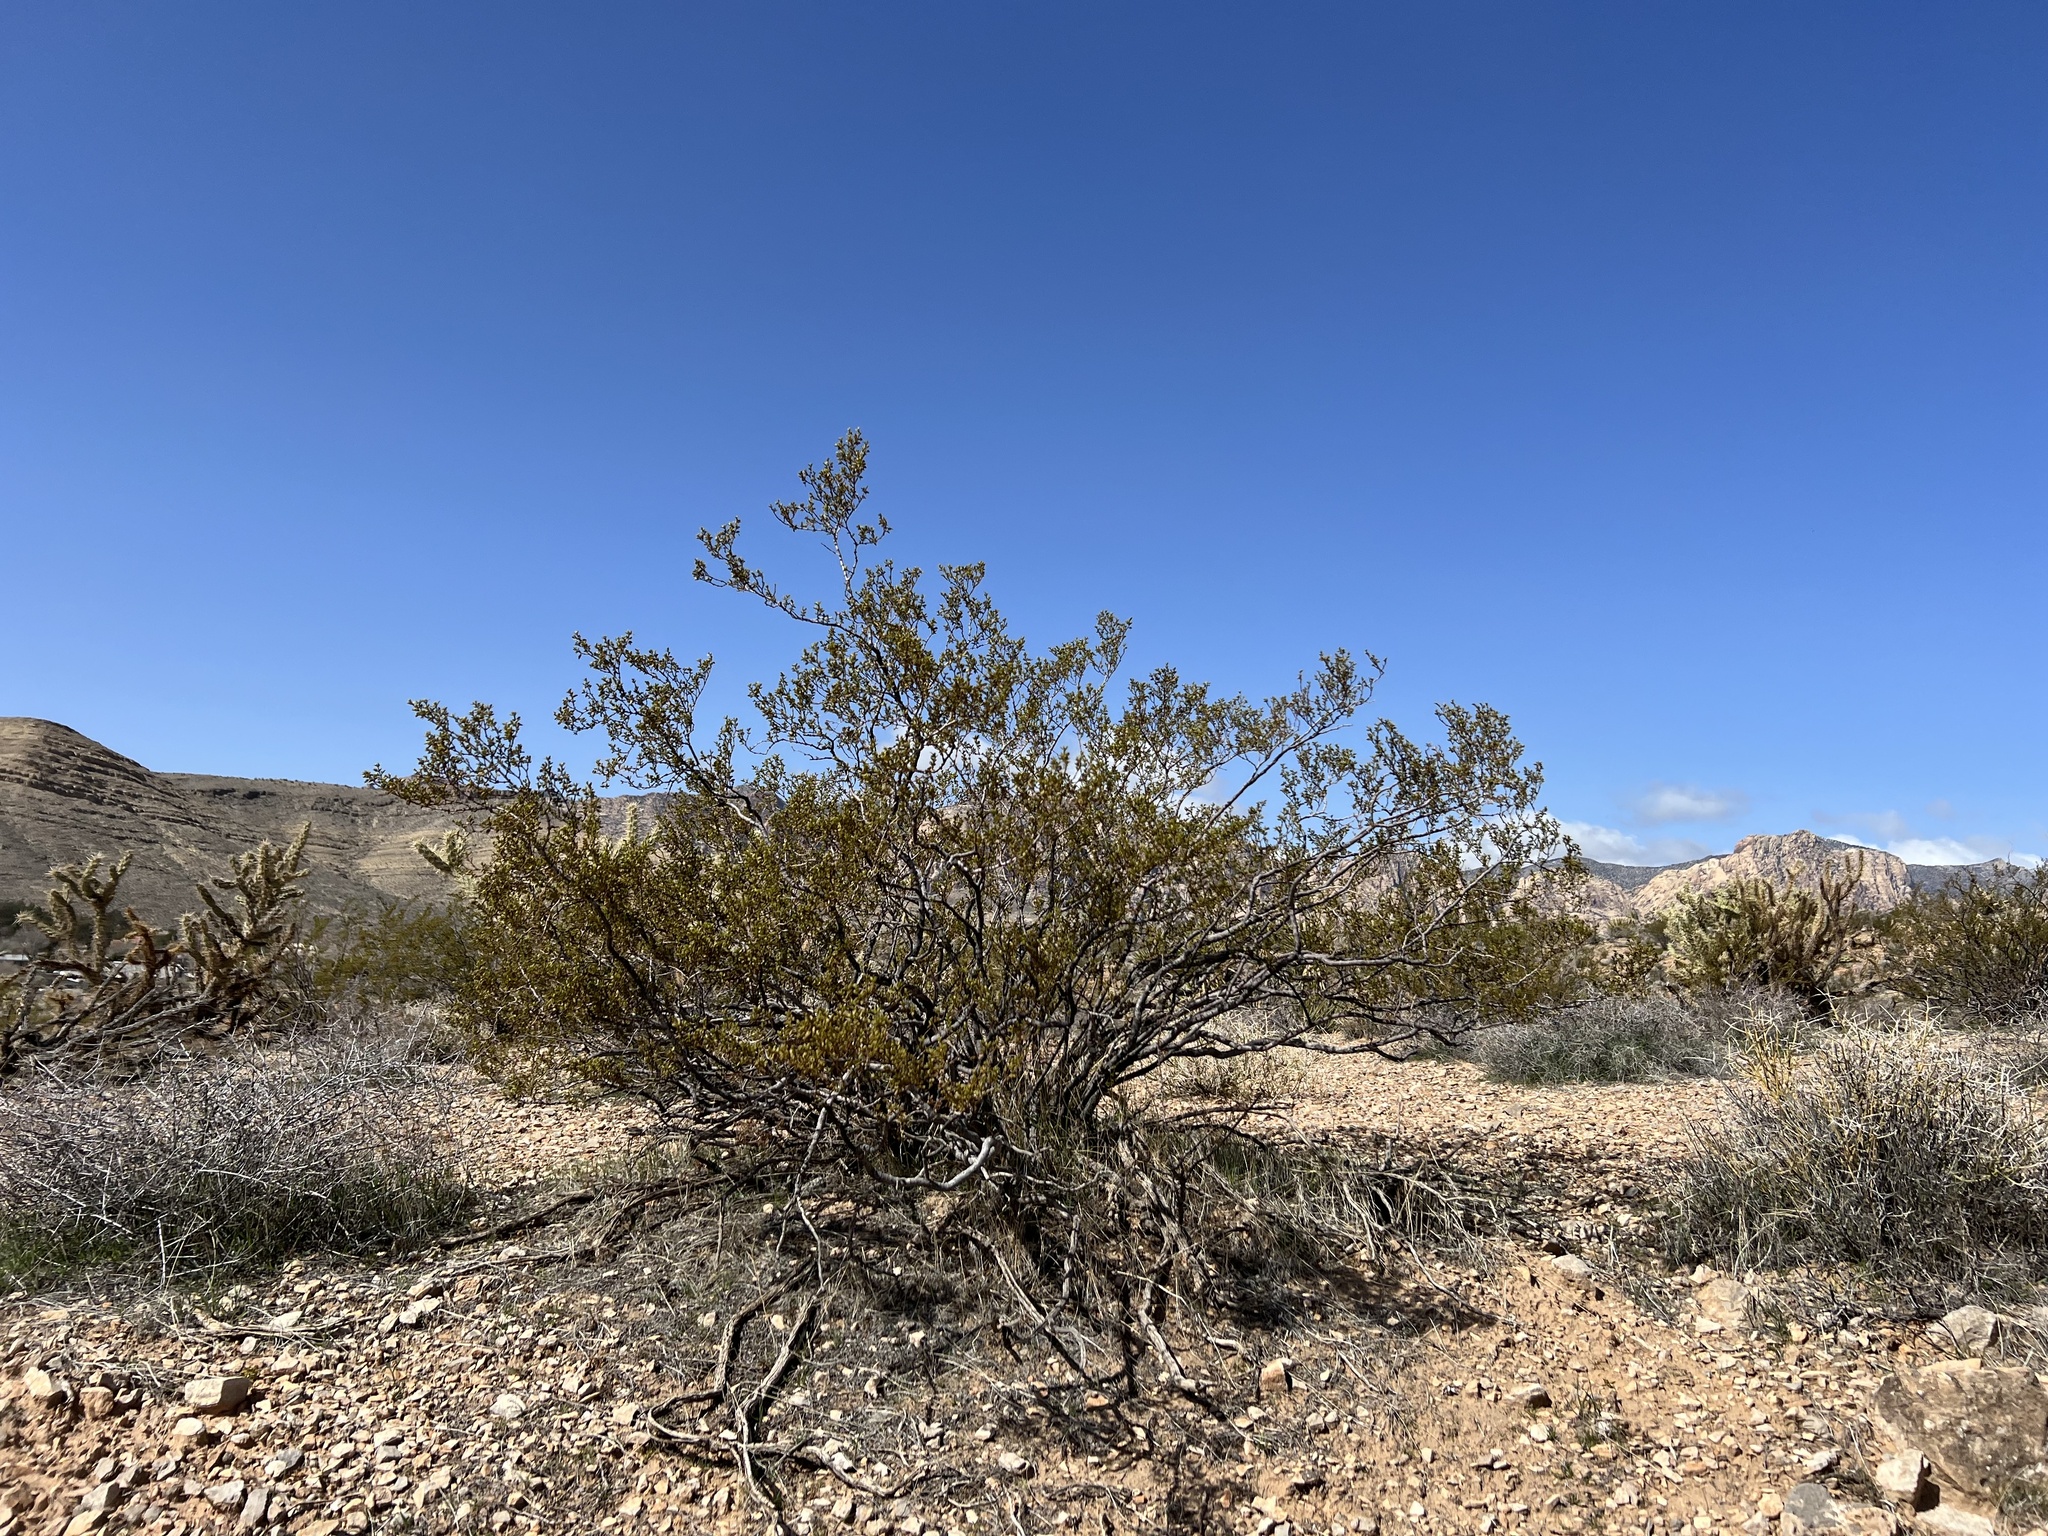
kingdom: Plantae
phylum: Tracheophyta
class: Magnoliopsida
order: Zygophyllales
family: Zygophyllaceae
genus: Larrea
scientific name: Larrea tridentata
